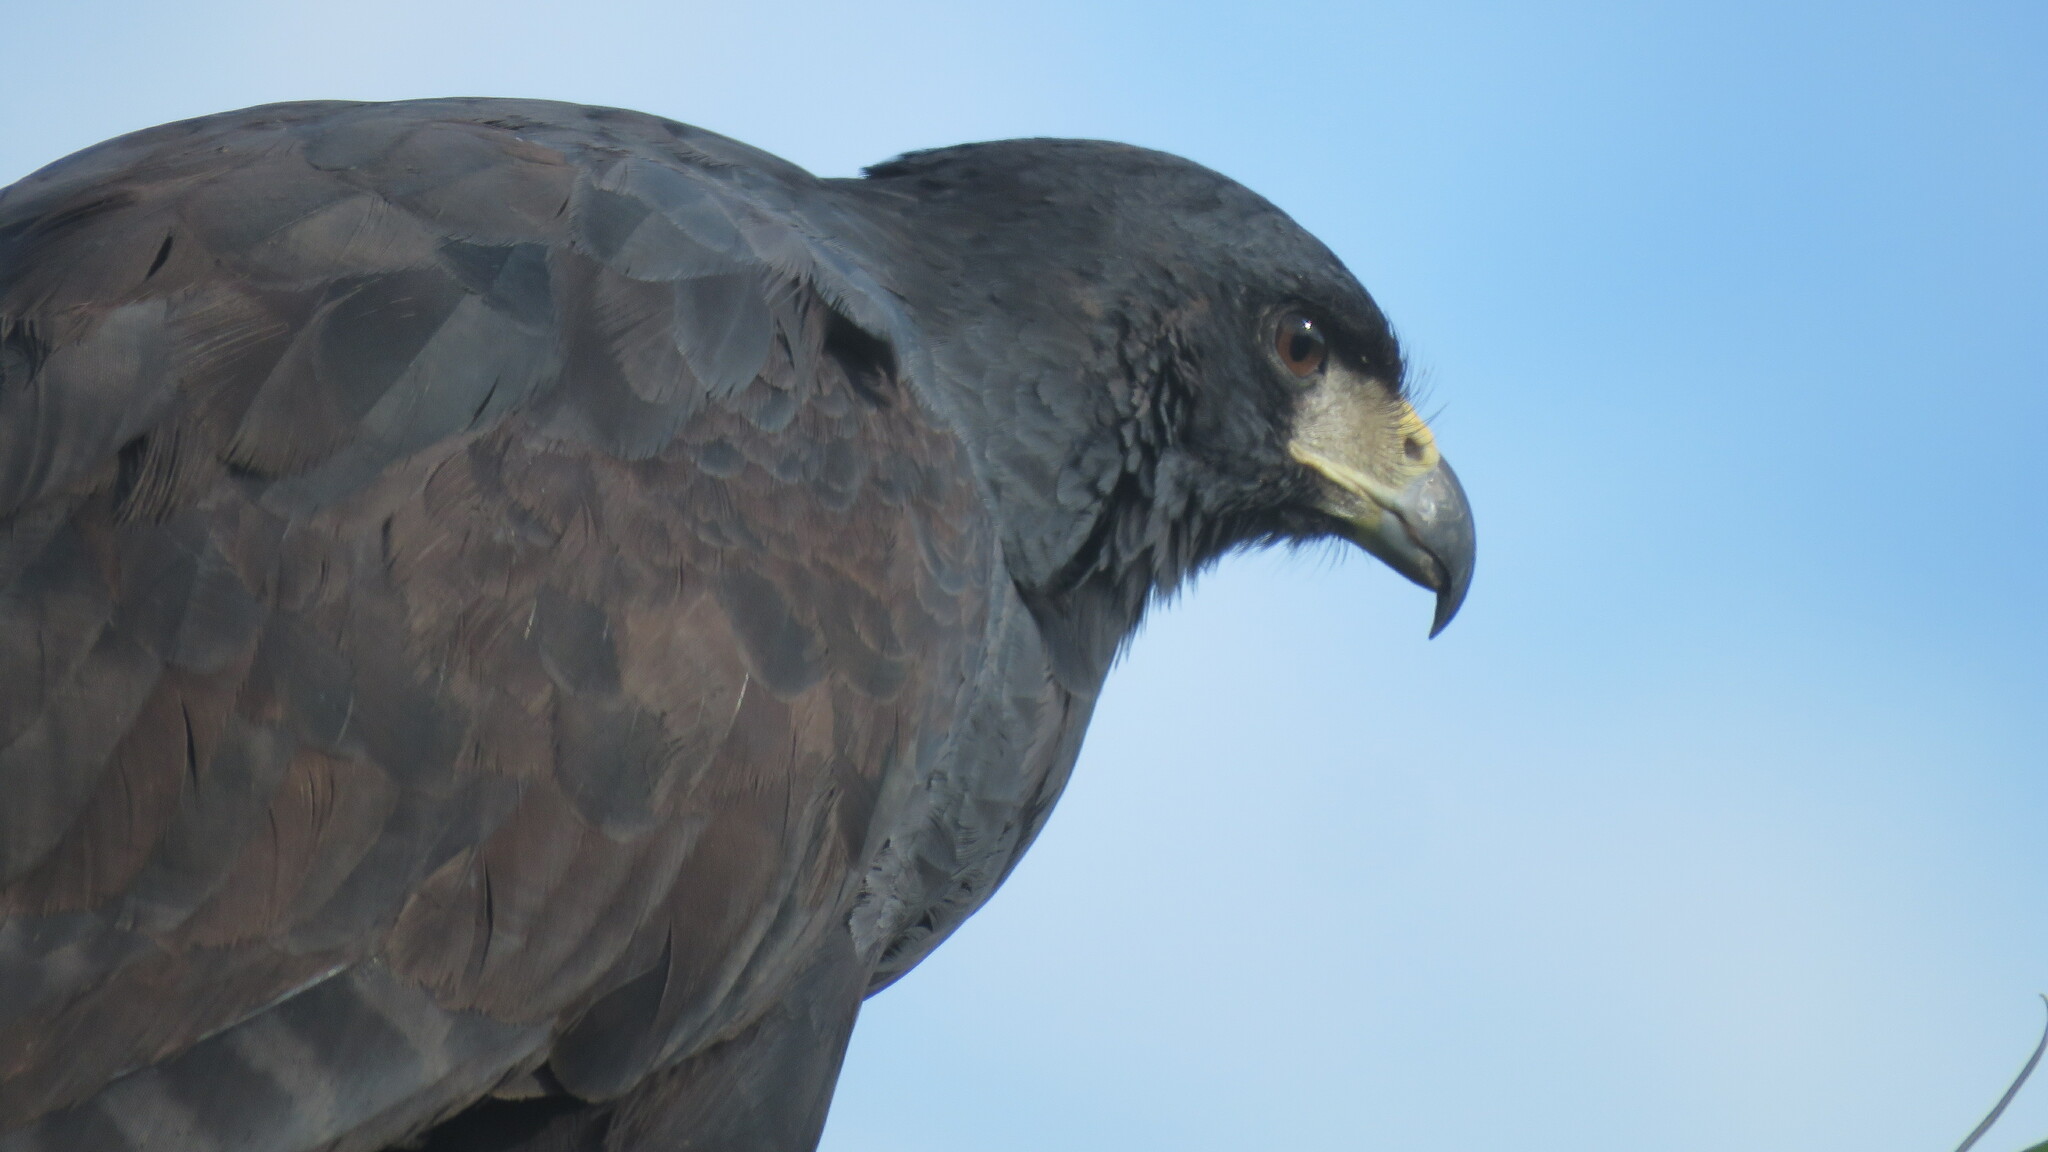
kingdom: Animalia
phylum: Chordata
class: Aves
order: Accipitriformes
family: Accipitridae
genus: Buteogallus
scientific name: Buteogallus urubitinga
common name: Great black hawk
